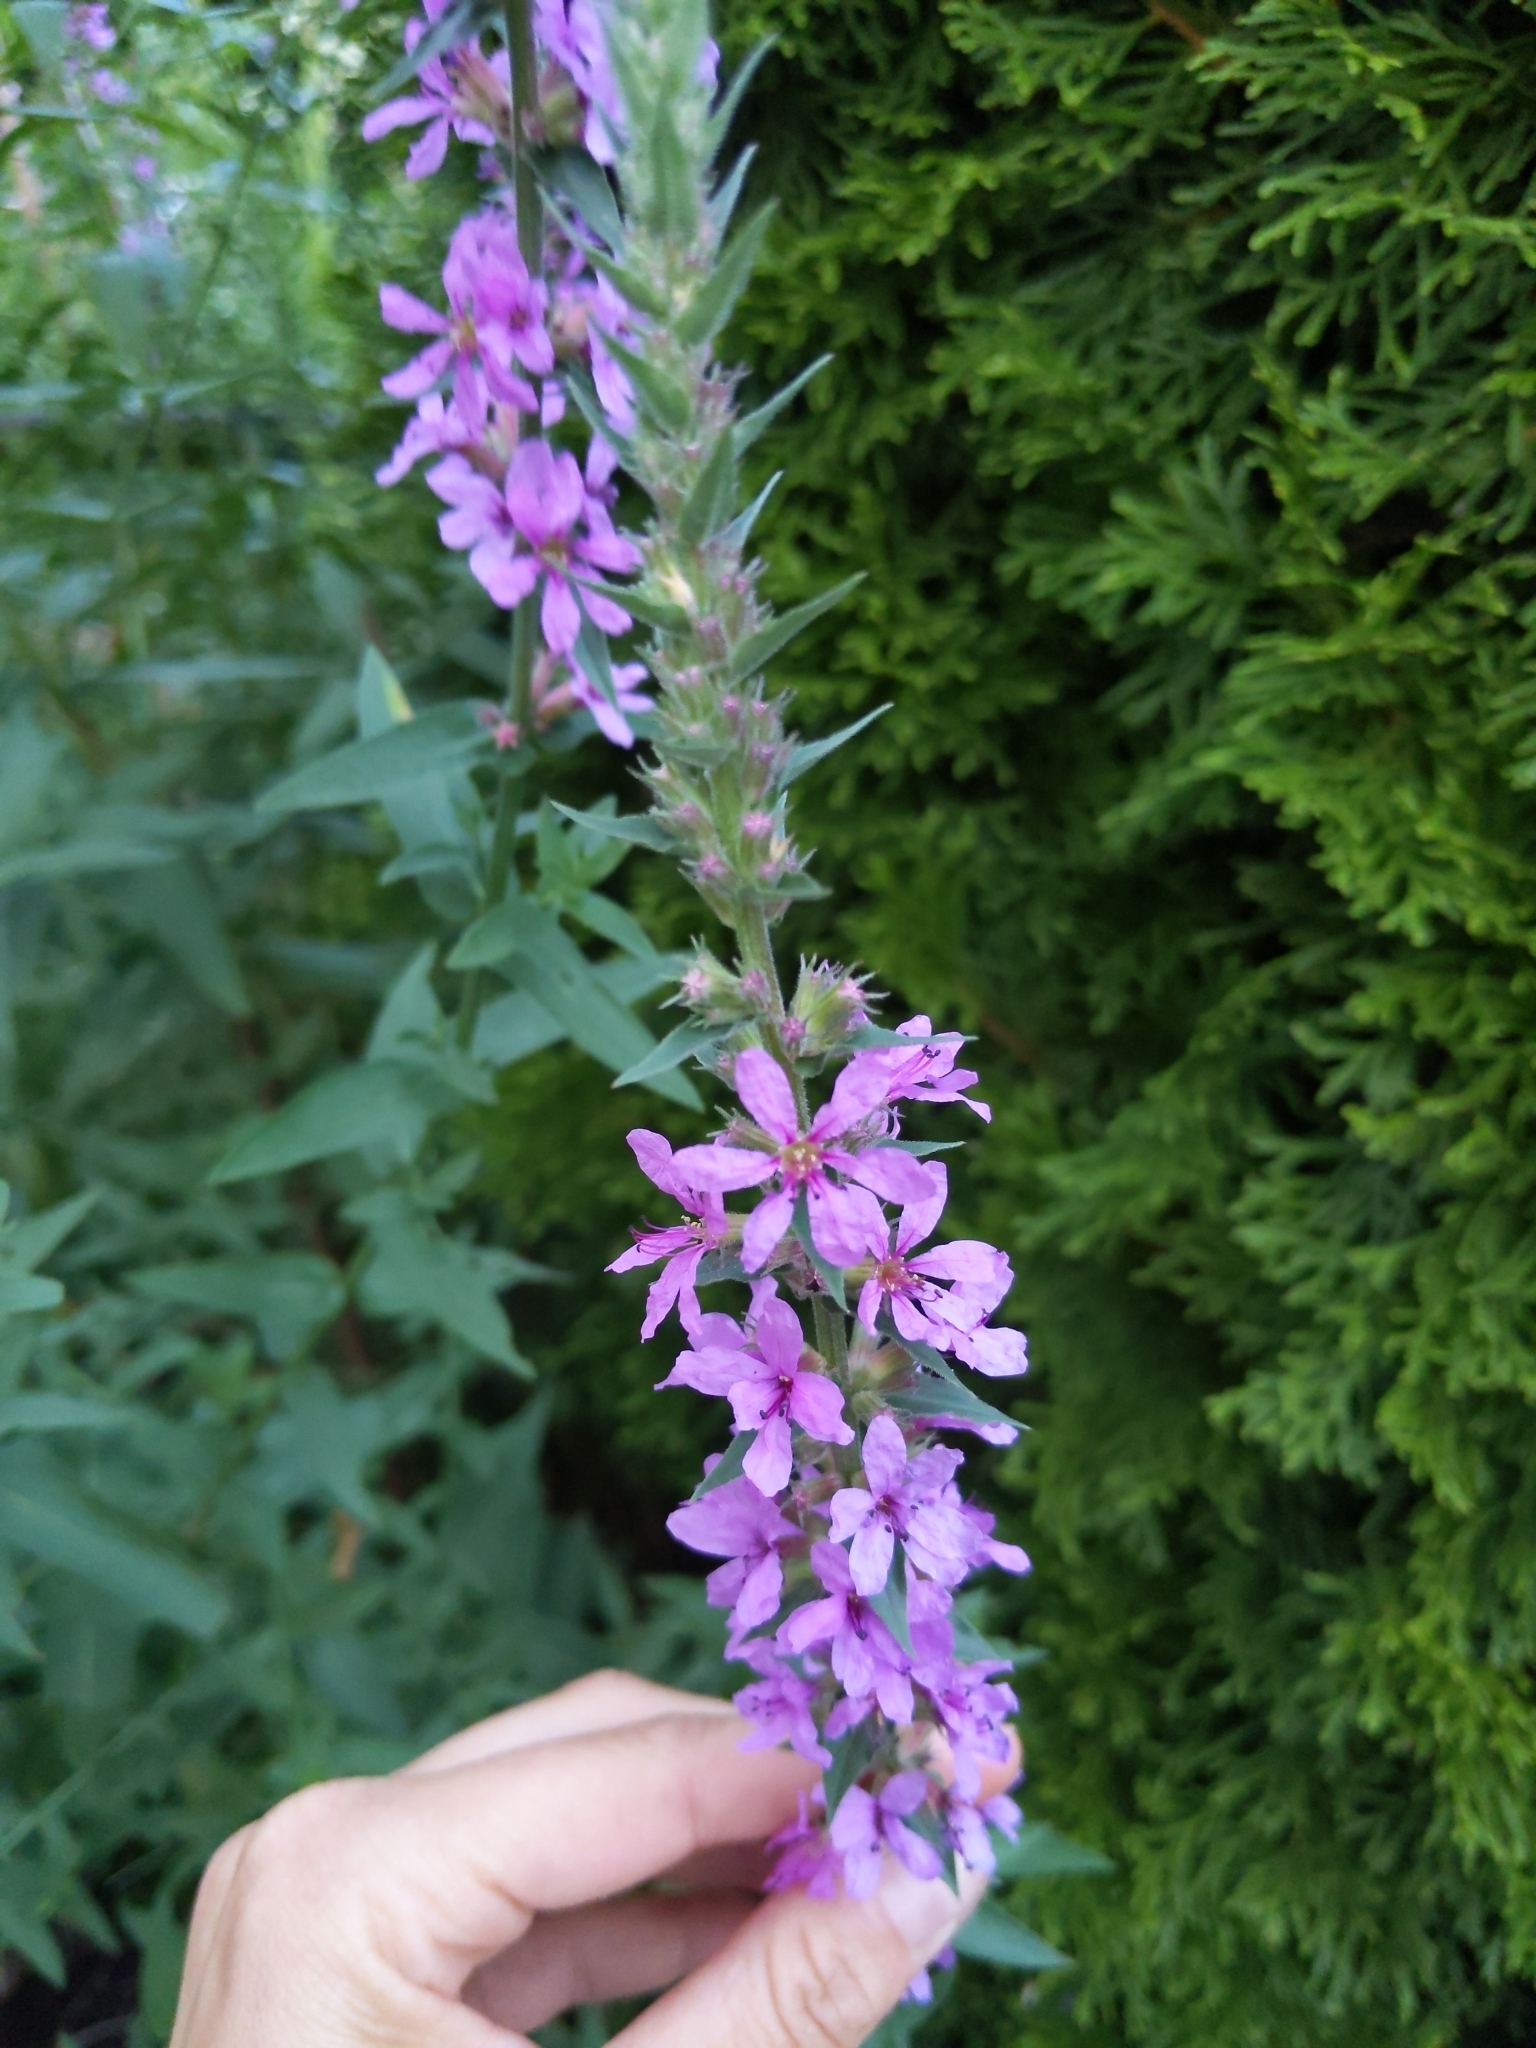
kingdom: Plantae
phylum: Tracheophyta
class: Magnoliopsida
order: Myrtales
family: Lythraceae
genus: Lythrum
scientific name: Lythrum salicaria
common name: Purple loosestrife
